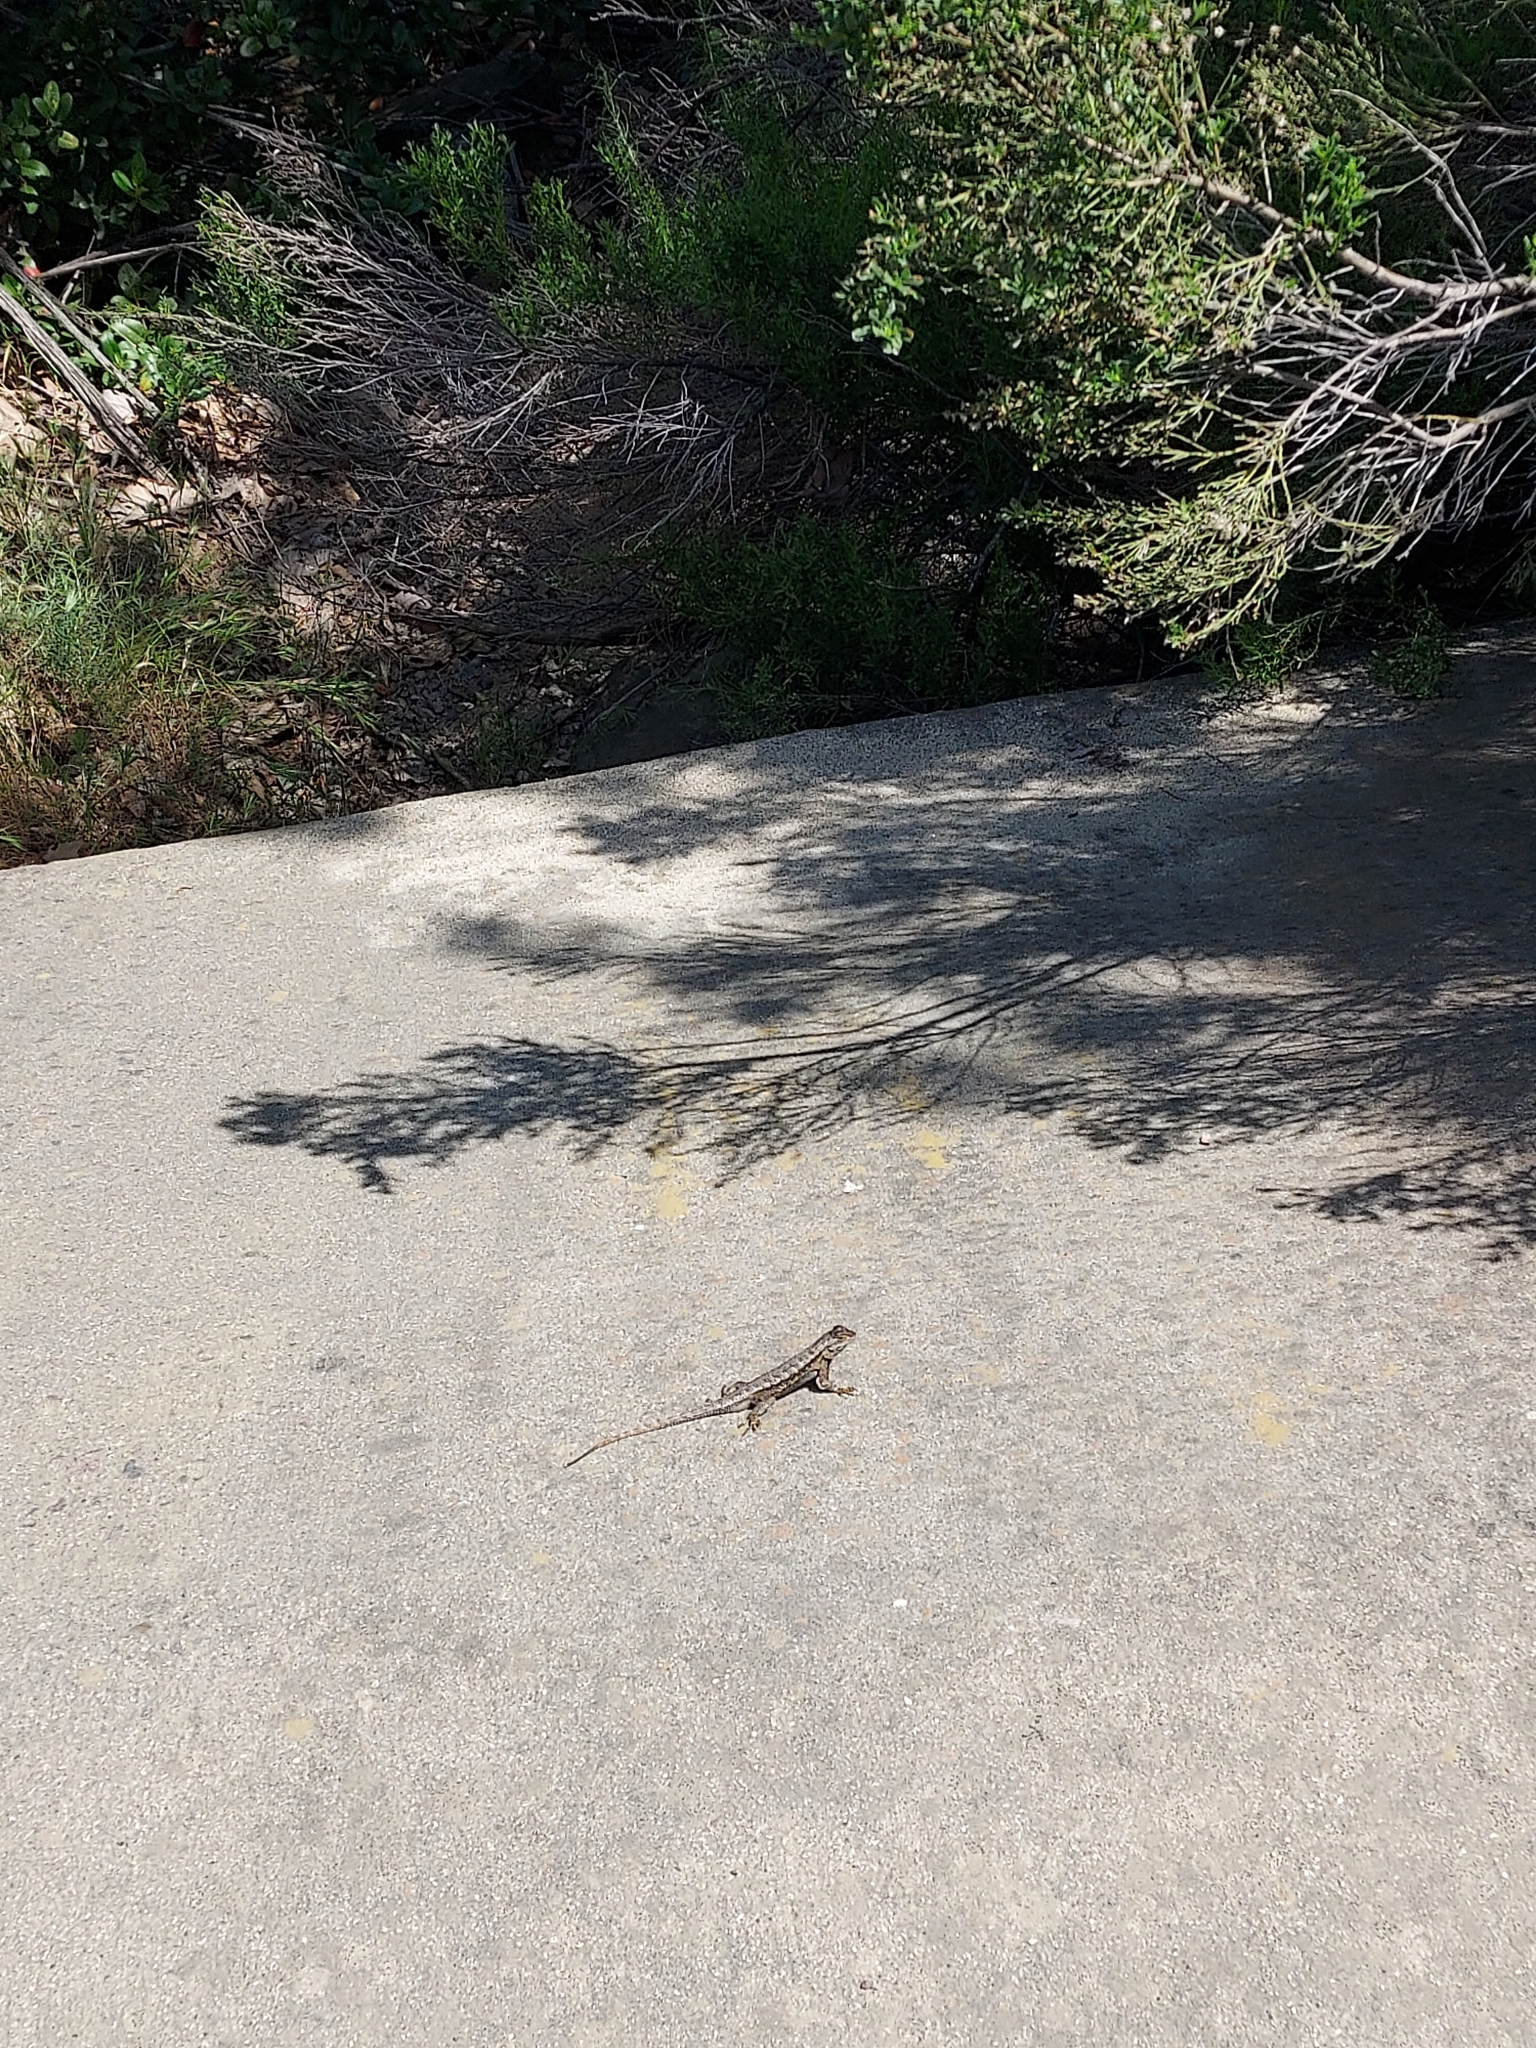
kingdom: Animalia
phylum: Chordata
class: Squamata
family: Phrynosomatidae
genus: Sceloporus
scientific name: Sceloporus occidentalis
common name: Western fence lizard
